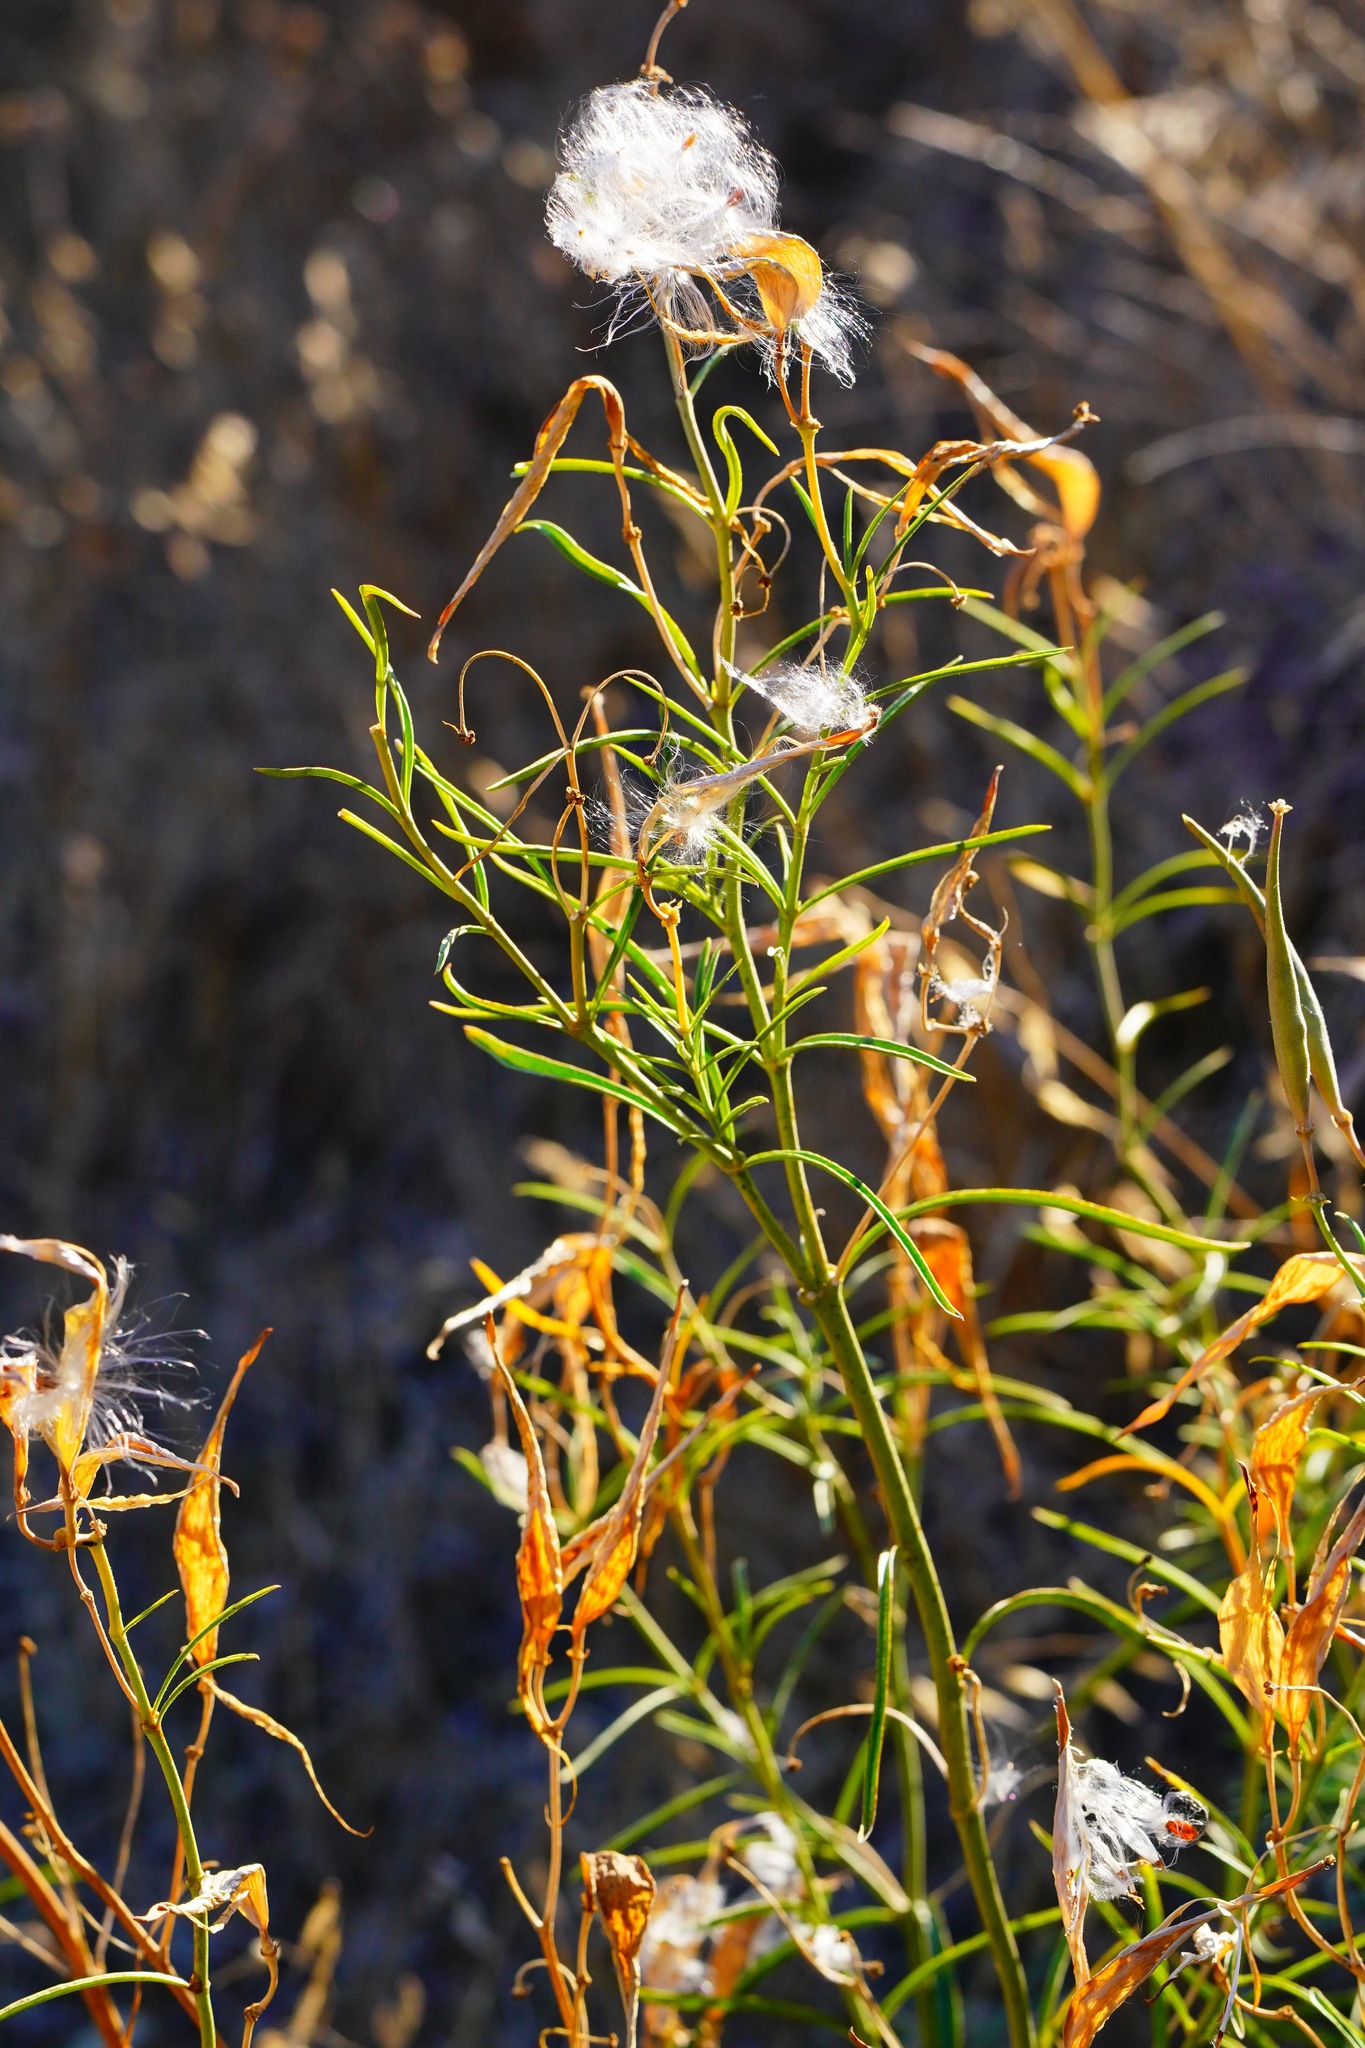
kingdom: Plantae
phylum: Tracheophyta
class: Magnoliopsida
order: Gentianales
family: Apocynaceae
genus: Asclepias
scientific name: Asclepias fascicularis
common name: Mexican milkweed
